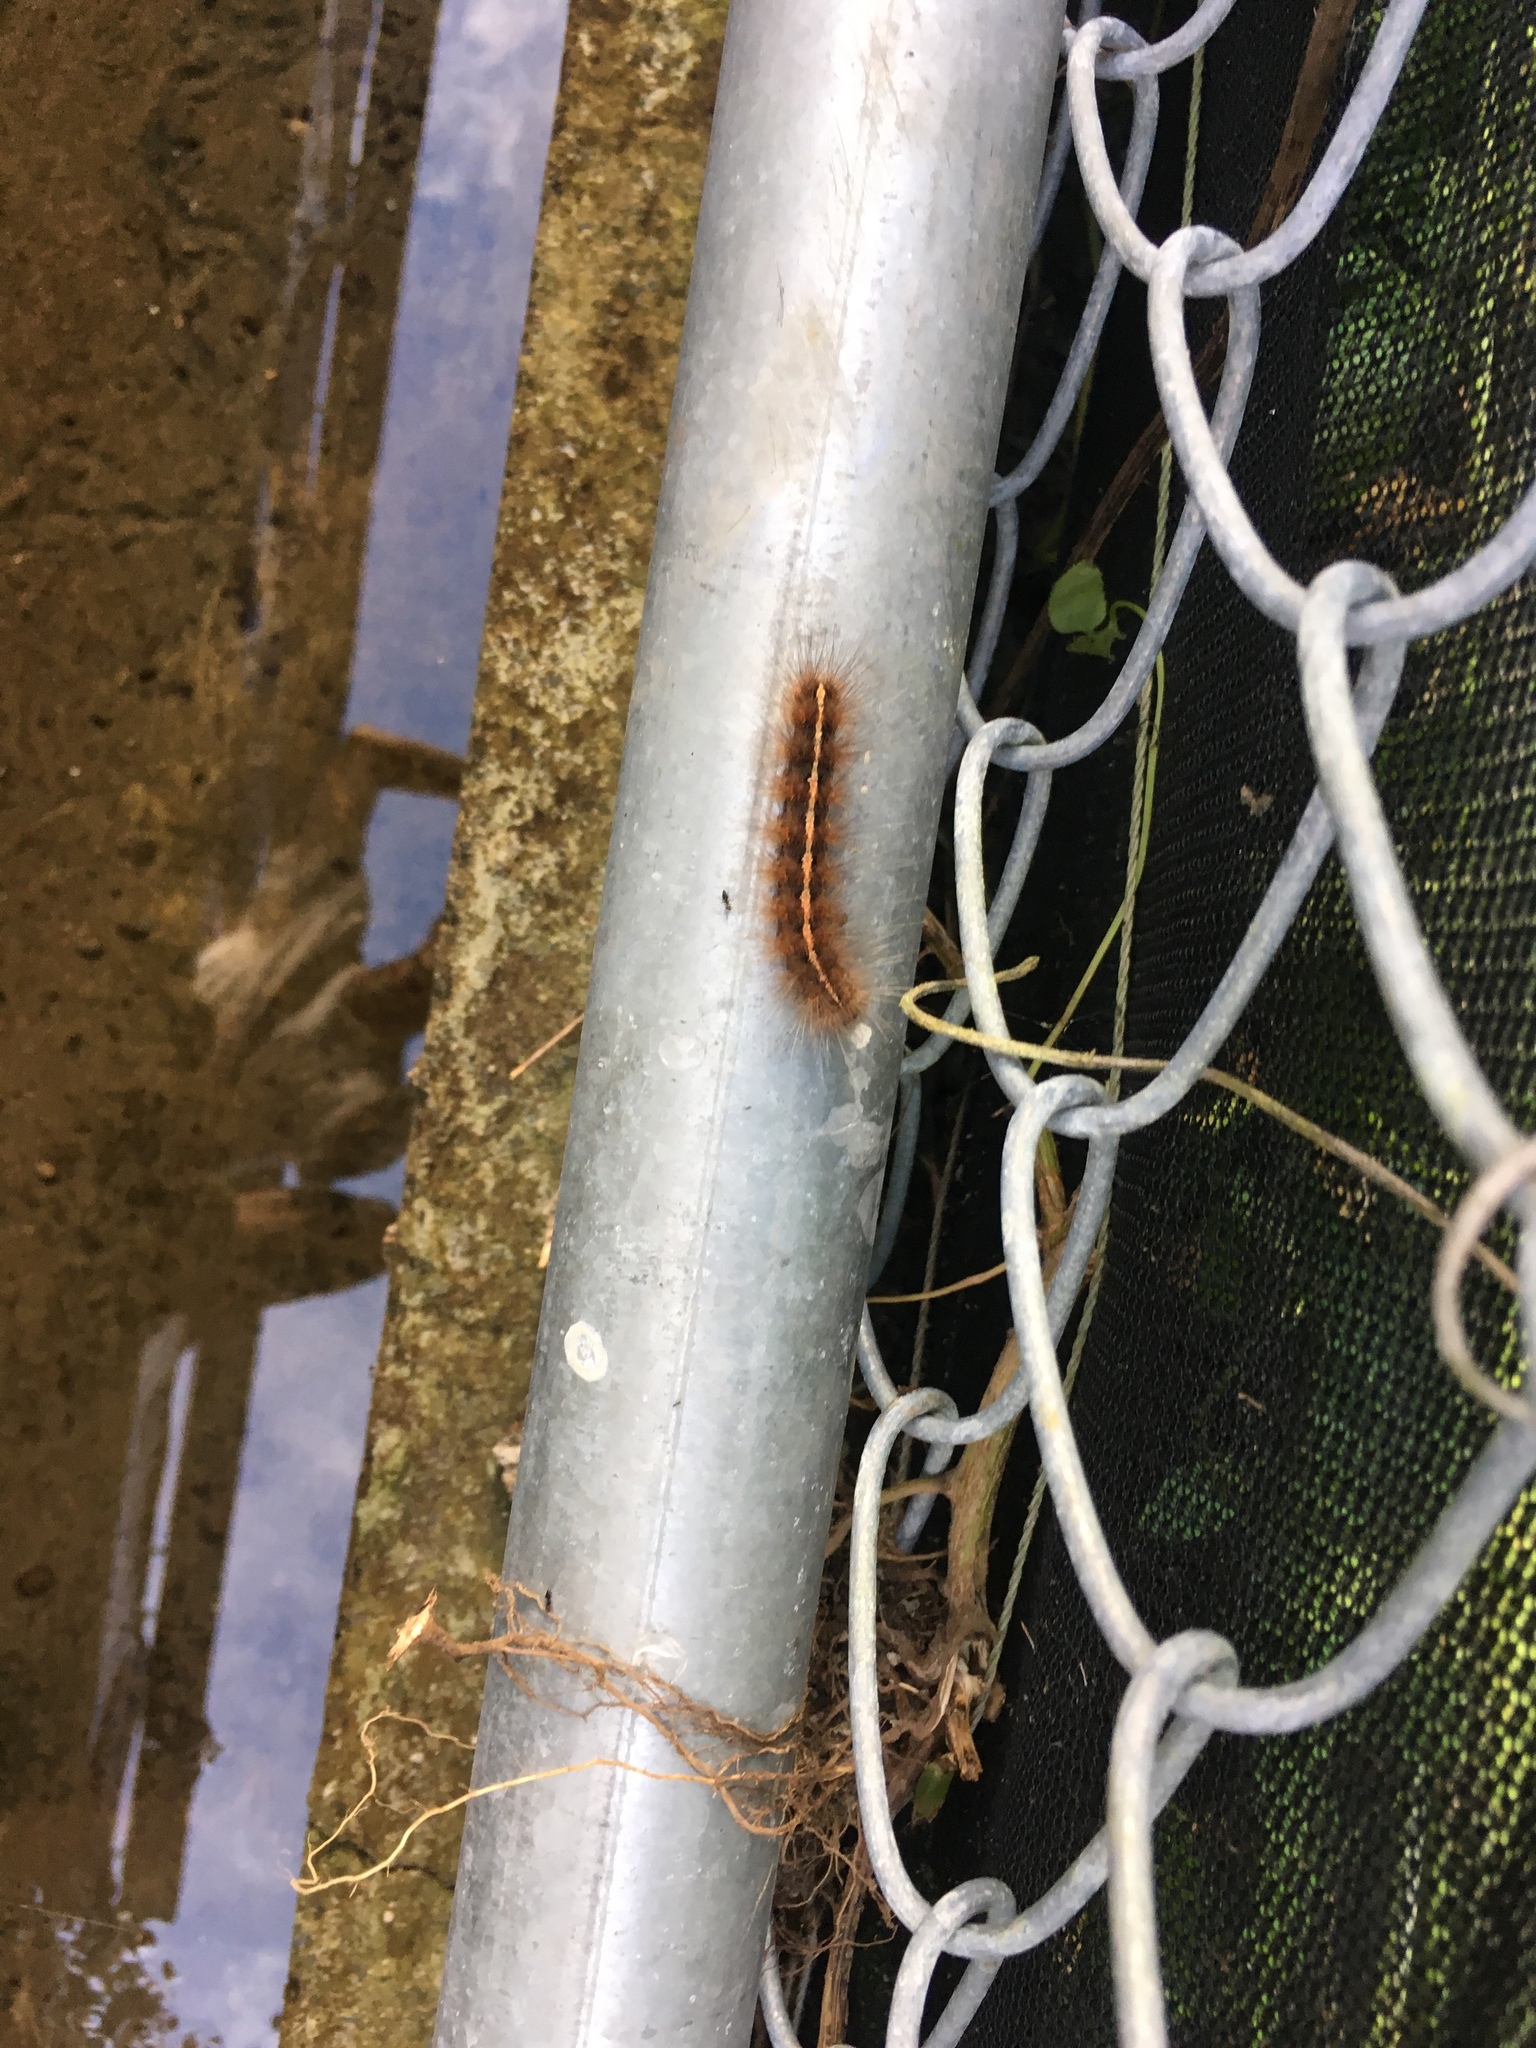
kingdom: Animalia
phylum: Arthropoda
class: Insecta
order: Lepidoptera
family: Erebidae
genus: Creatonotos
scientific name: Creatonotos transiens
